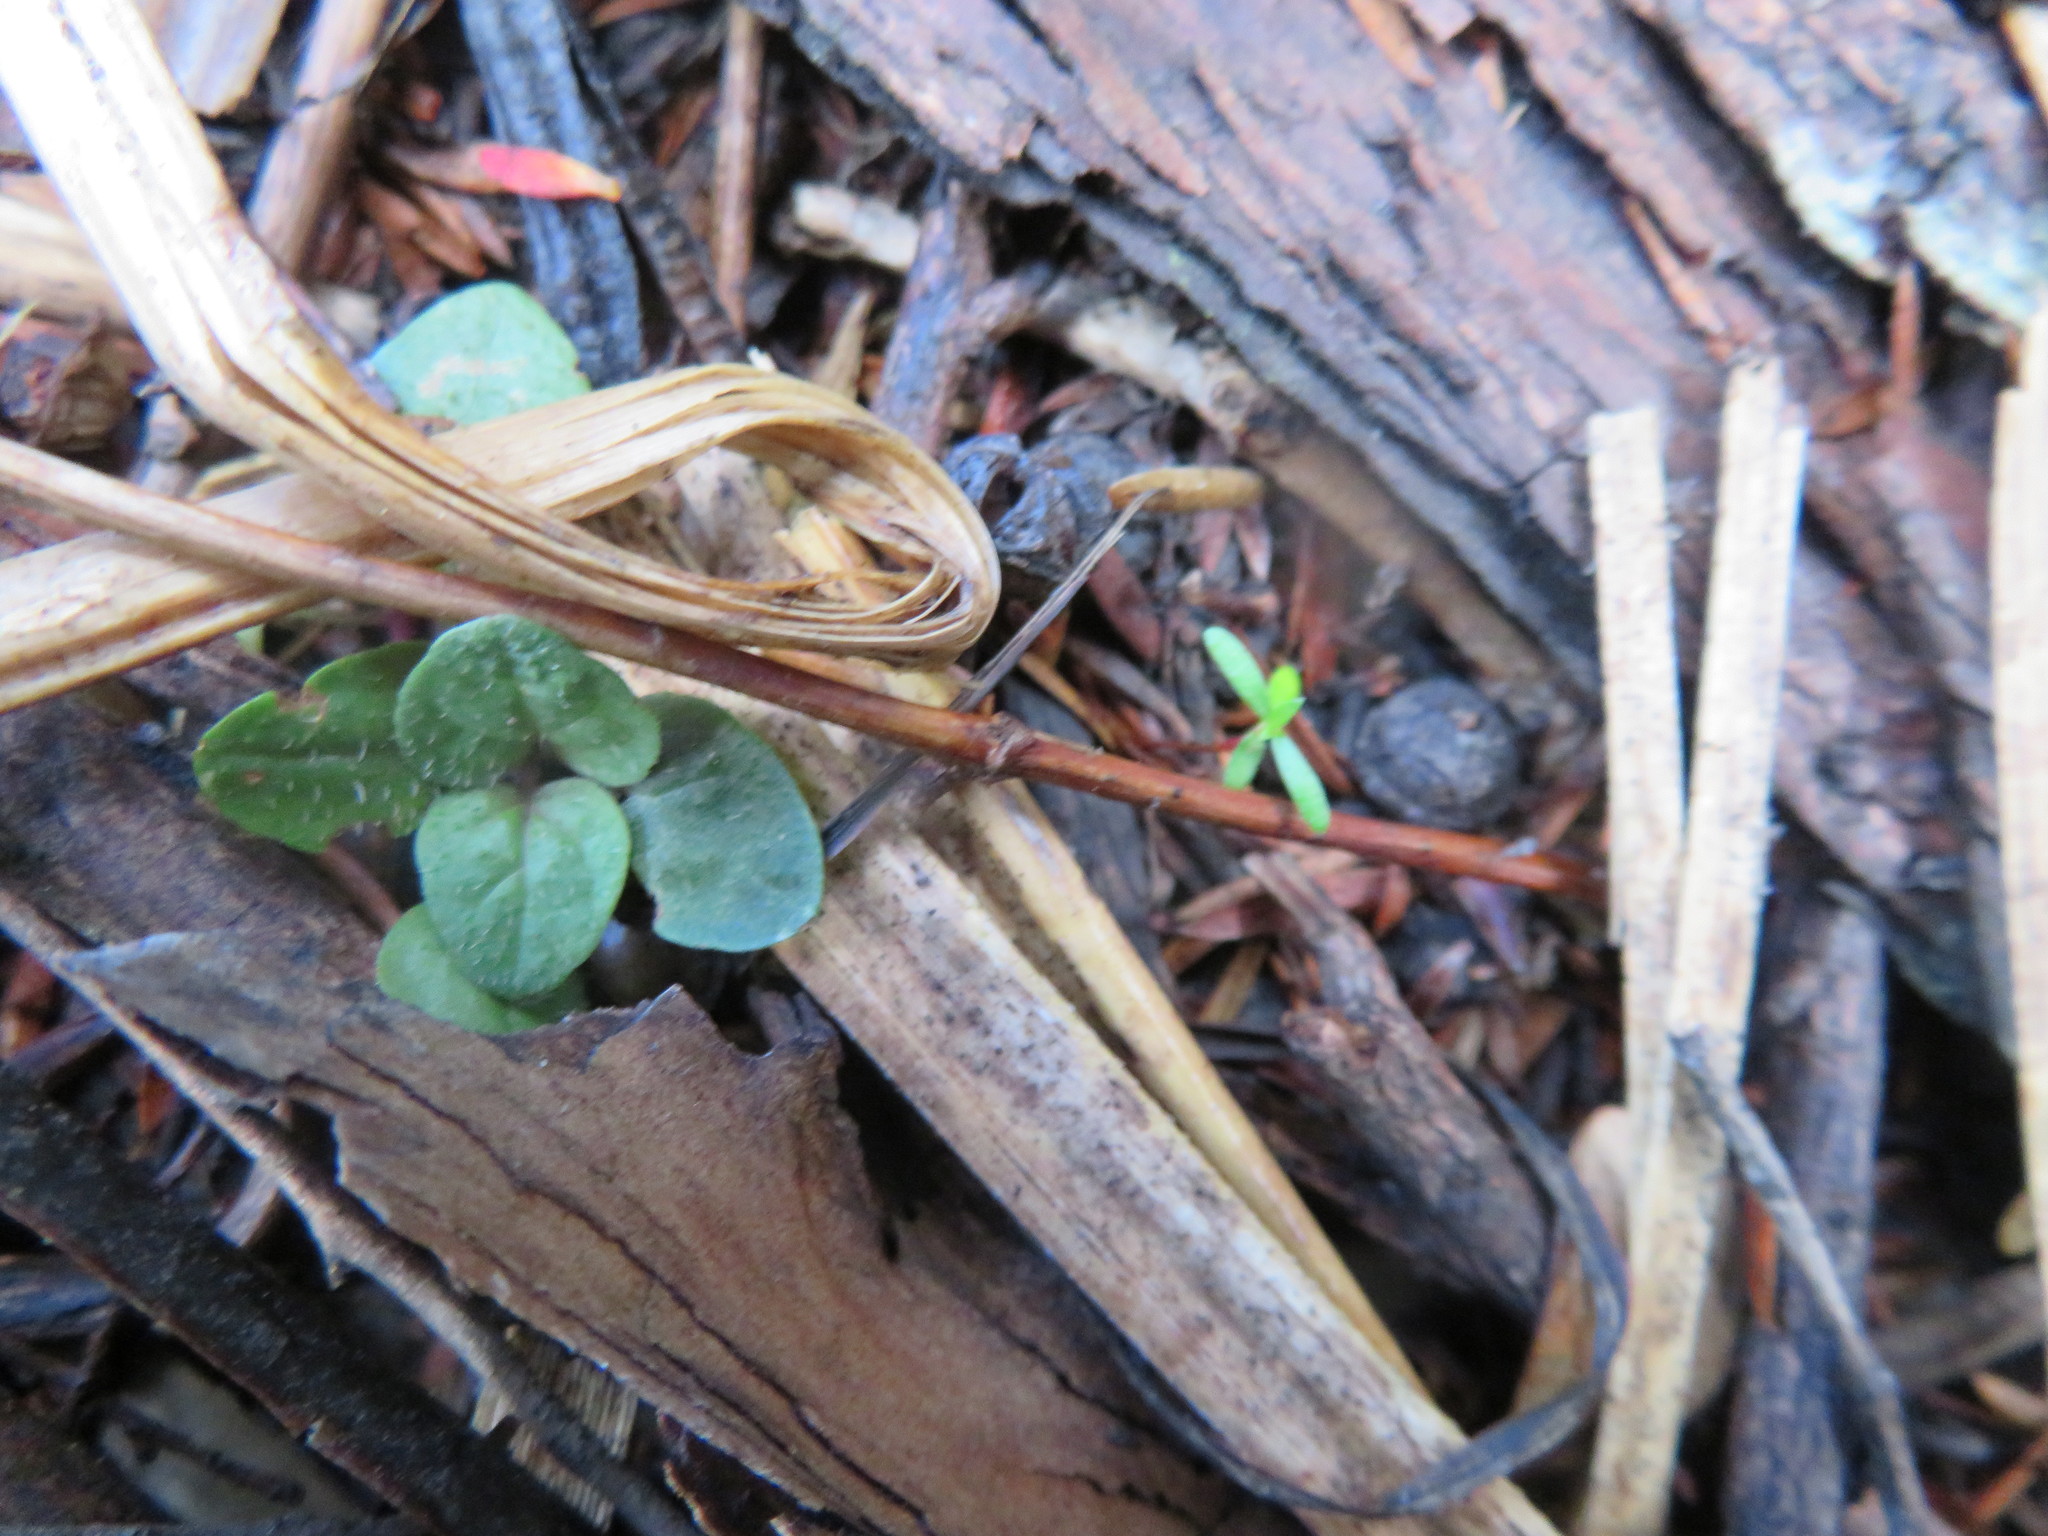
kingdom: Plantae
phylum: Tracheophyta
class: Magnoliopsida
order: Lamiales
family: Lamiaceae
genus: Prunella
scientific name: Prunella vulgaris
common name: Heal-all
